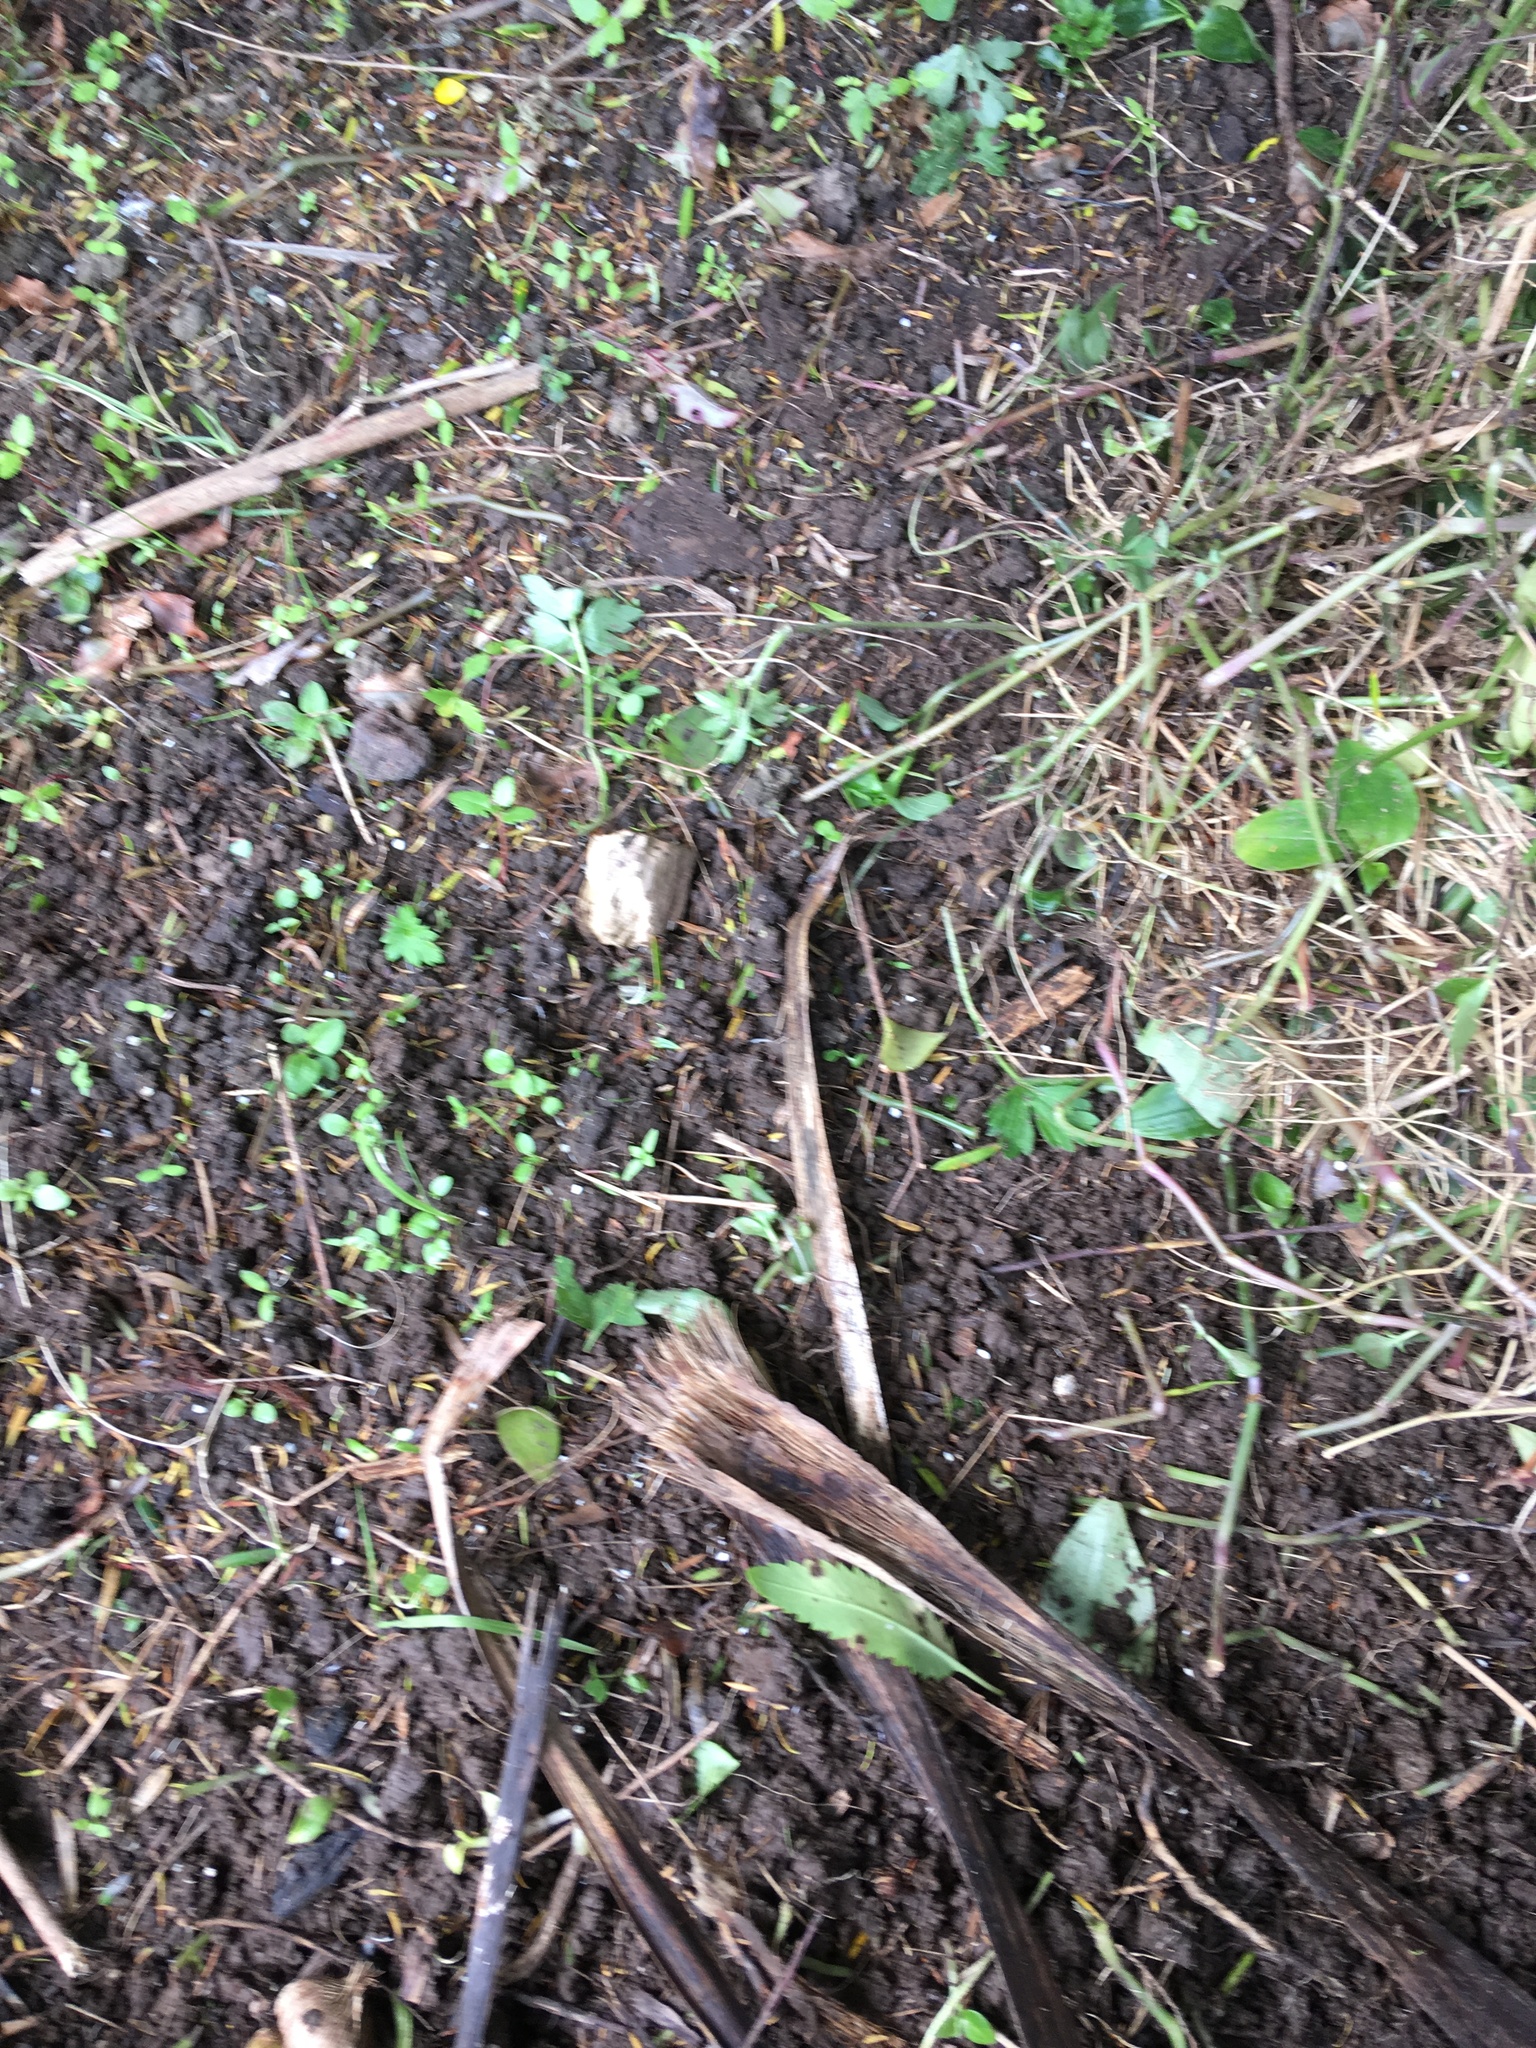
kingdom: Plantae
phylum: Tracheophyta
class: Liliopsida
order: Commelinales
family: Commelinaceae
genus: Tradescantia
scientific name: Tradescantia fluminensis
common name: Wandering-jew
